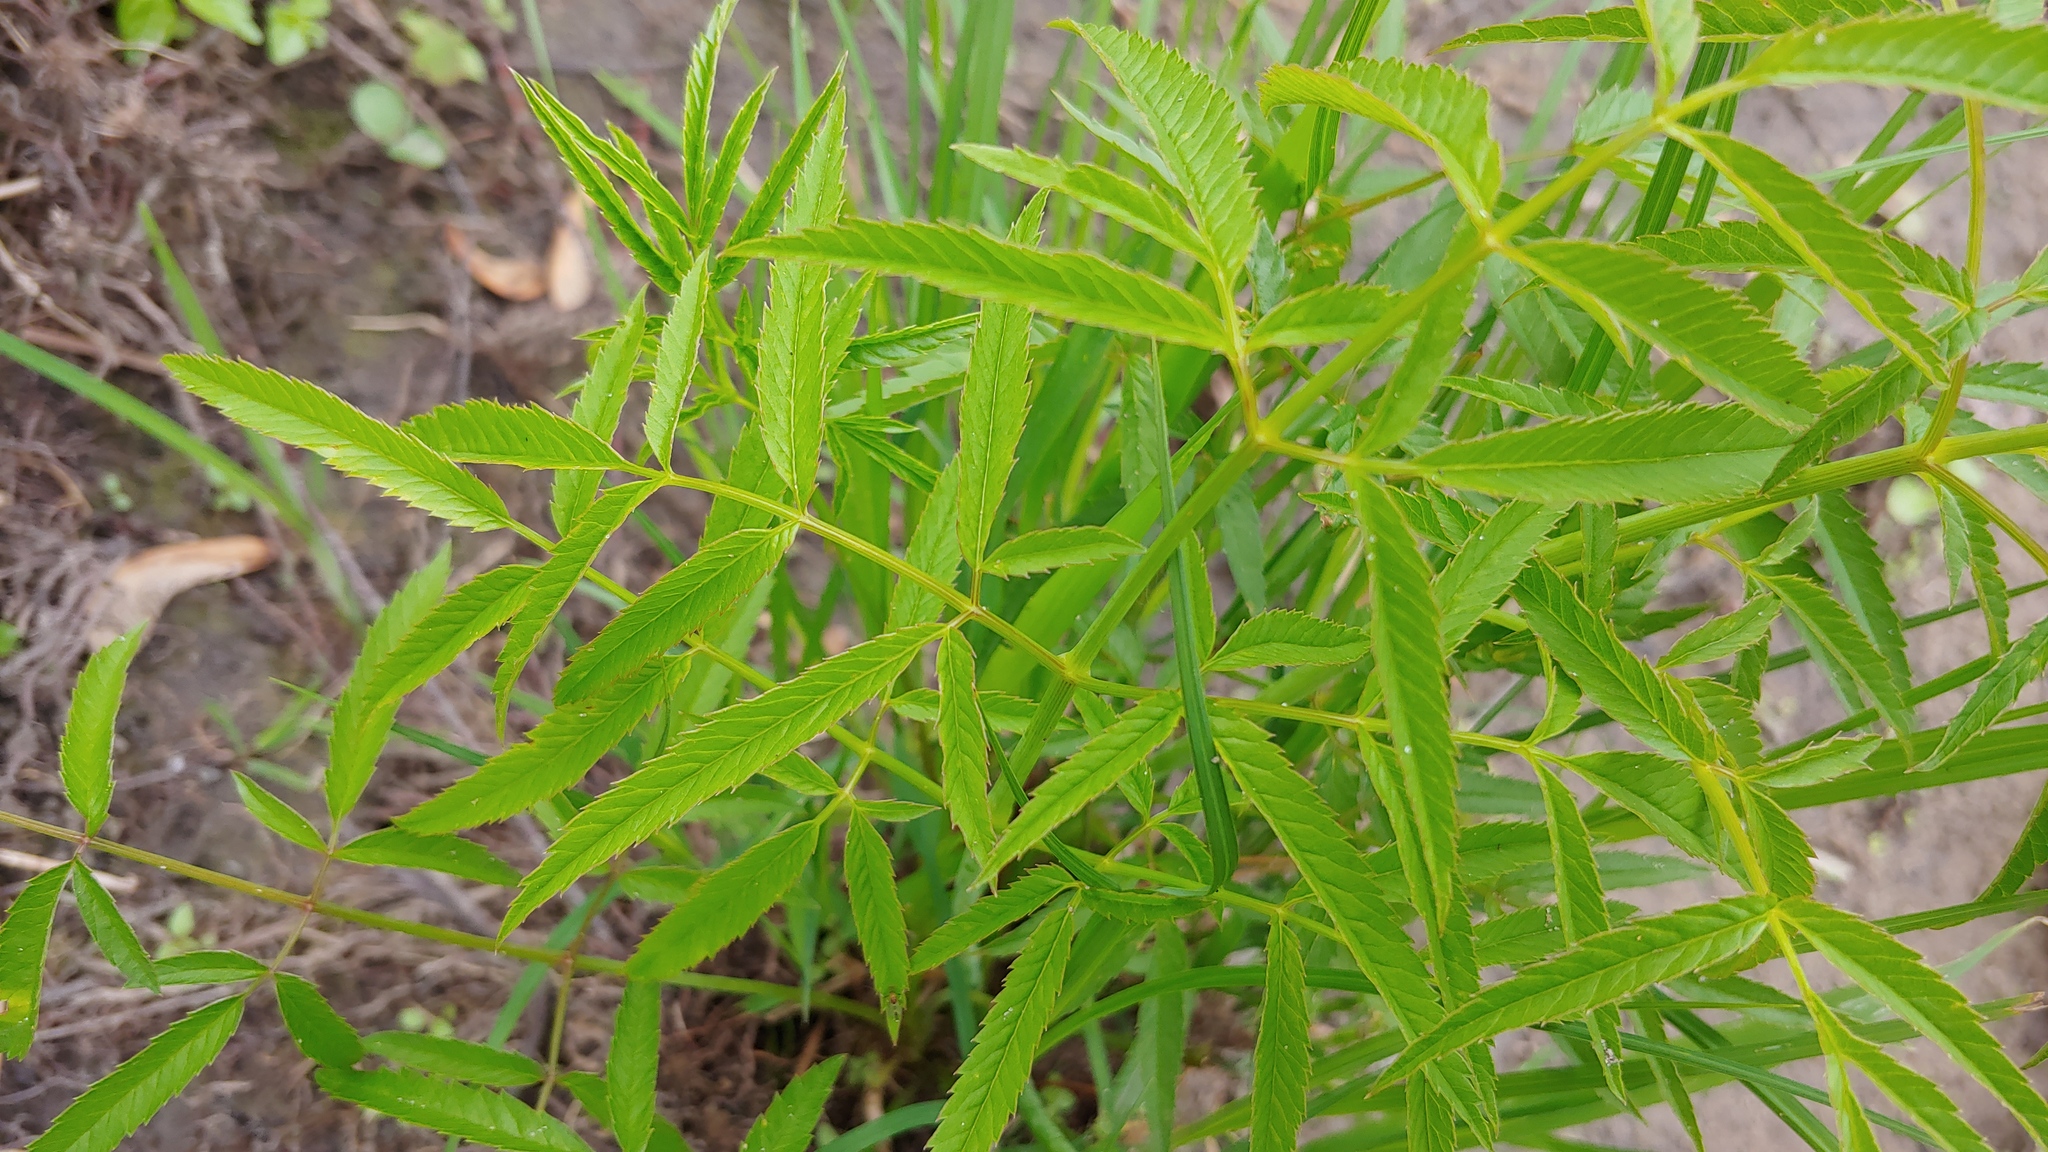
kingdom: Plantae
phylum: Tracheophyta
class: Magnoliopsida
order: Apiales
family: Apiaceae
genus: Cicuta
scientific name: Cicuta maculata
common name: Spotted cowbane
